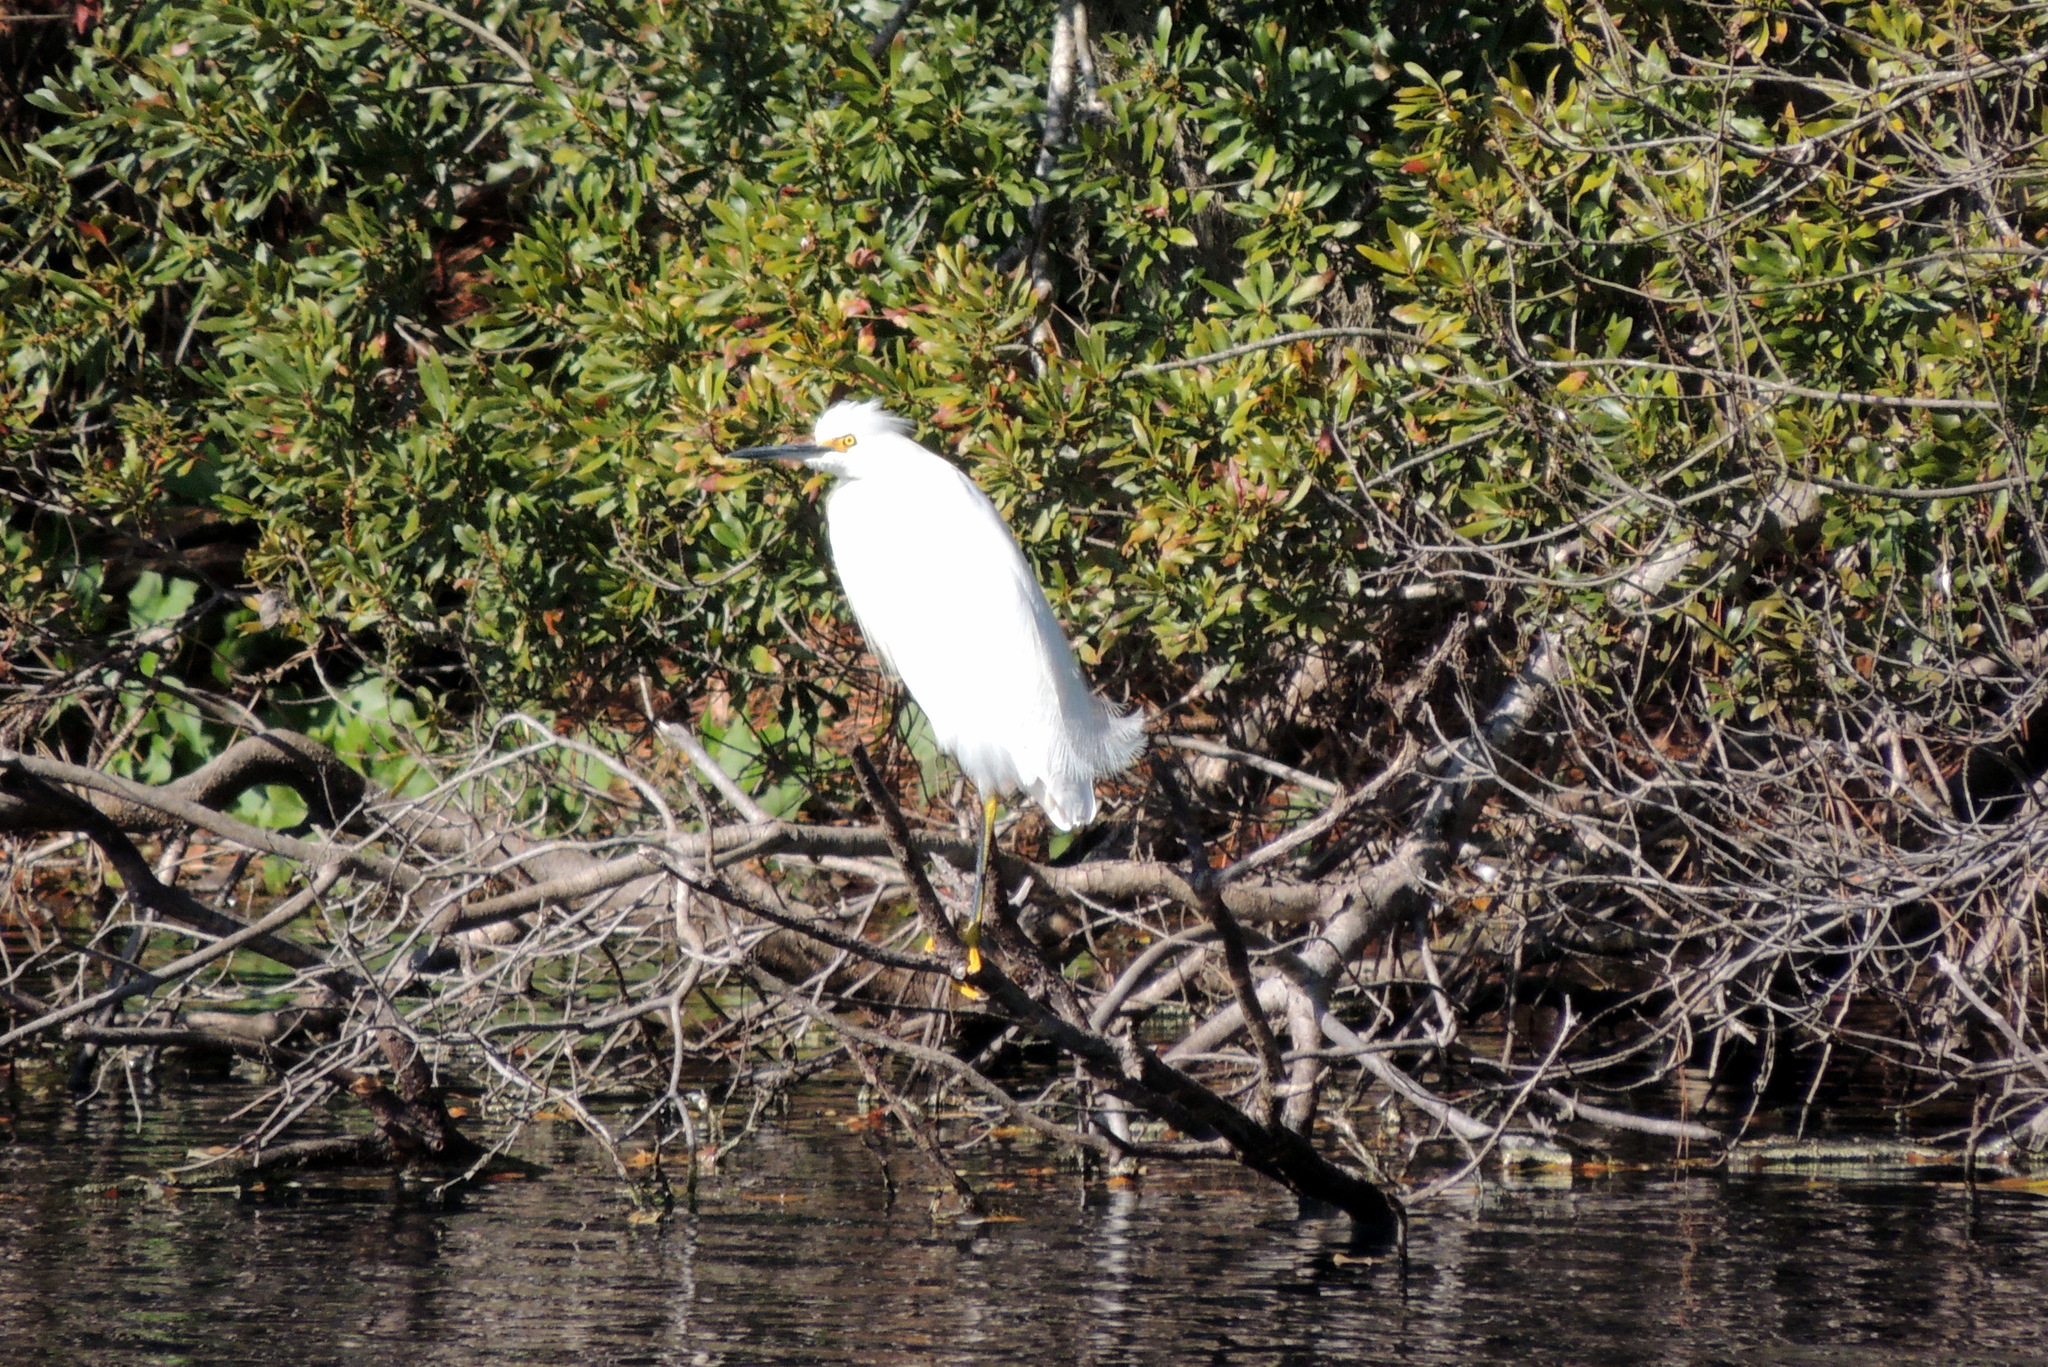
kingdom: Animalia
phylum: Chordata
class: Aves
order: Pelecaniformes
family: Ardeidae
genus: Egretta
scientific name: Egretta thula
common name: Snowy egret
